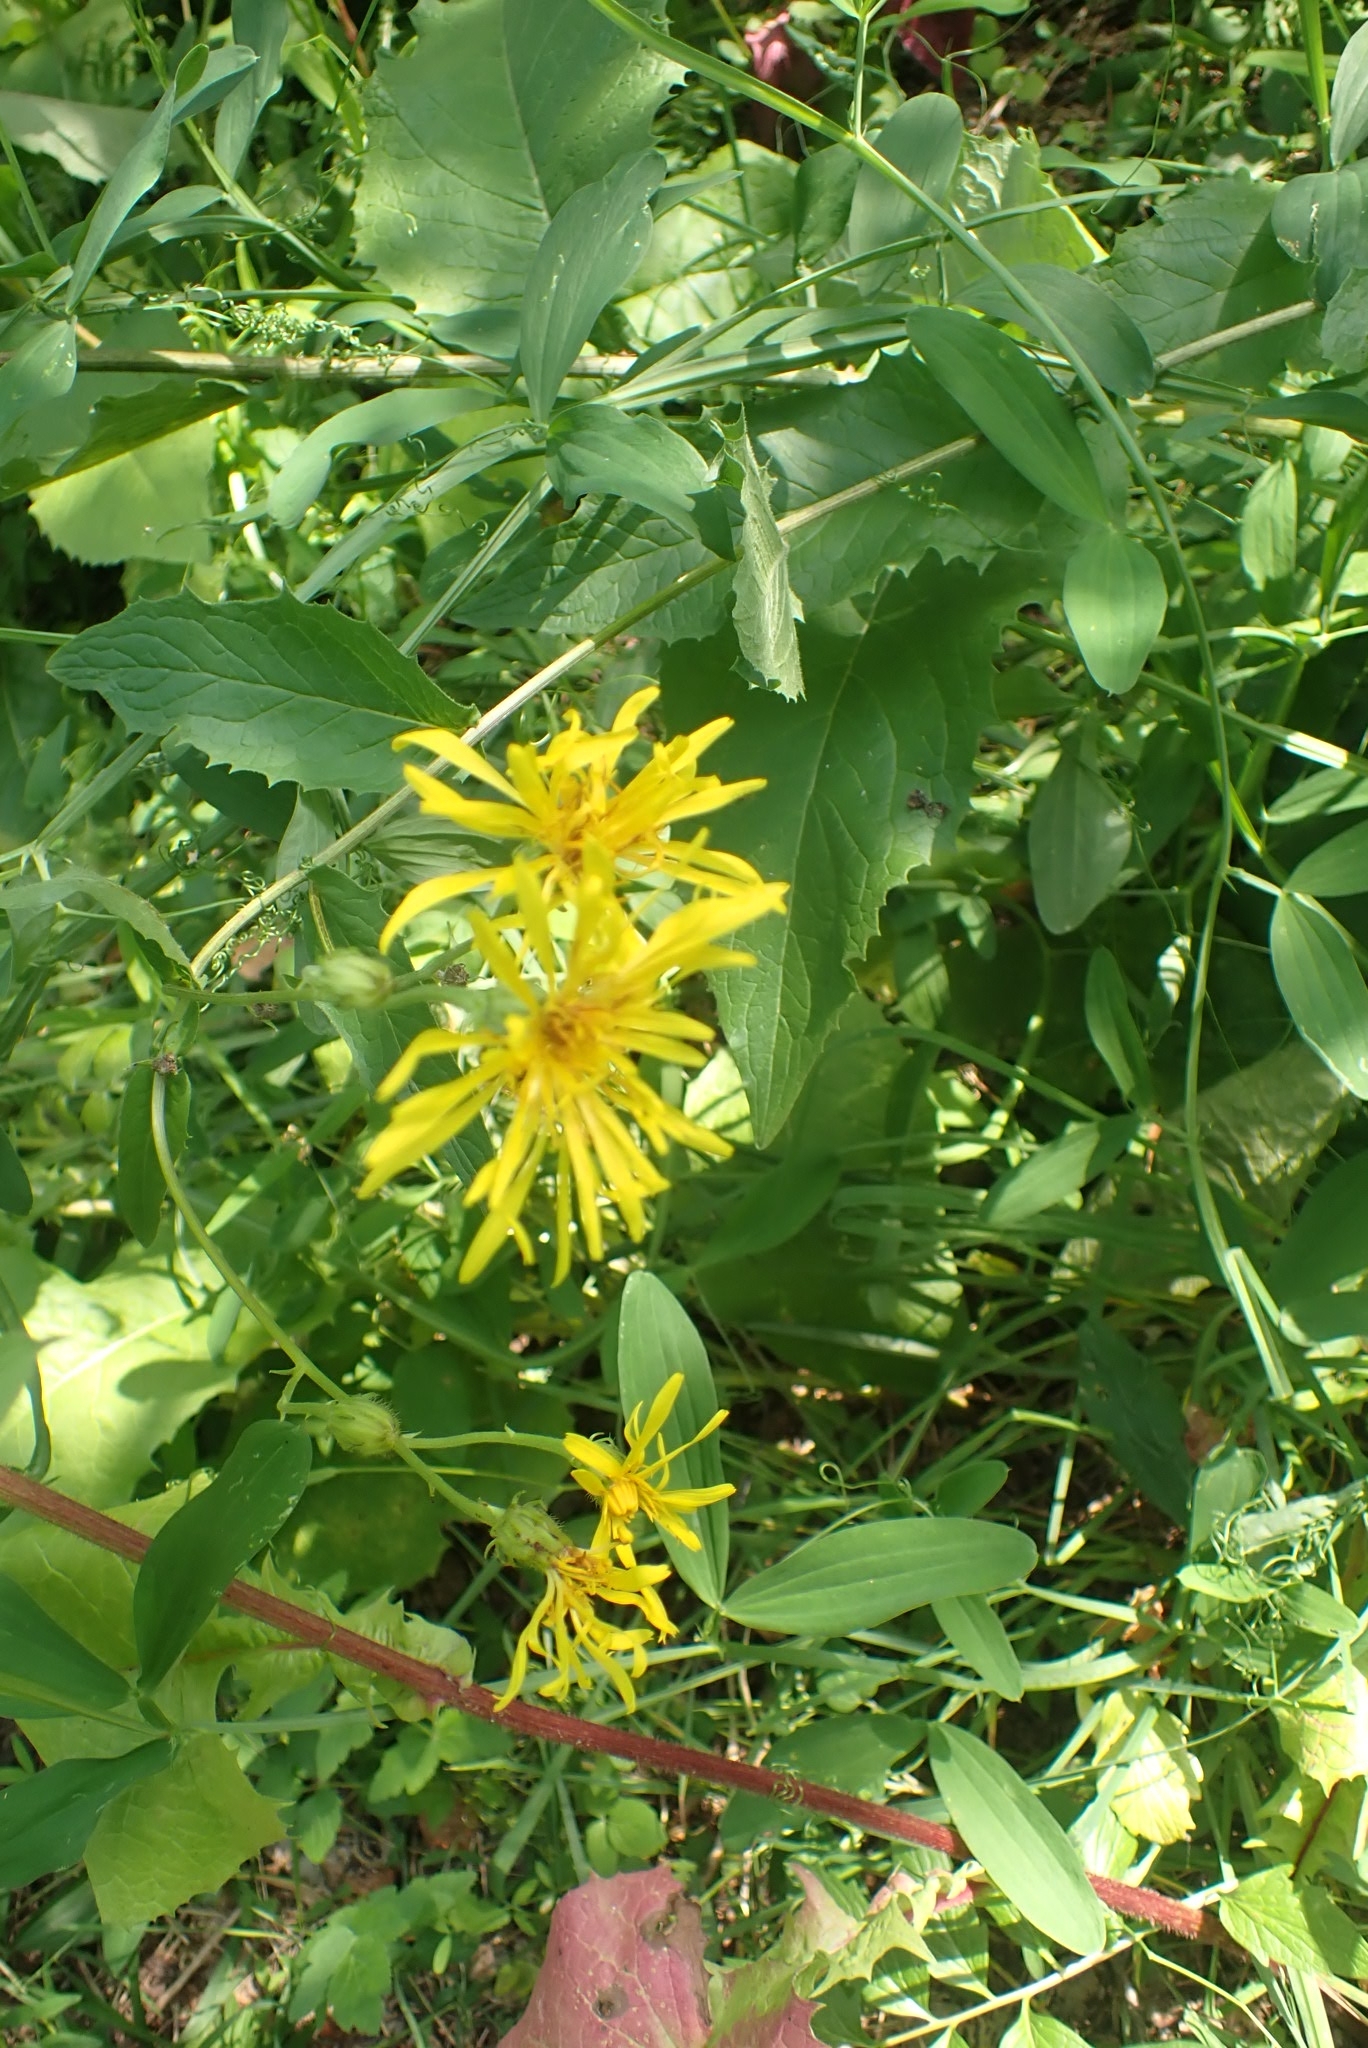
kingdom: Plantae
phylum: Tracheophyta
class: Magnoliopsida
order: Asterales
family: Asteraceae
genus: Crepis
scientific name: Crepis sibirica
